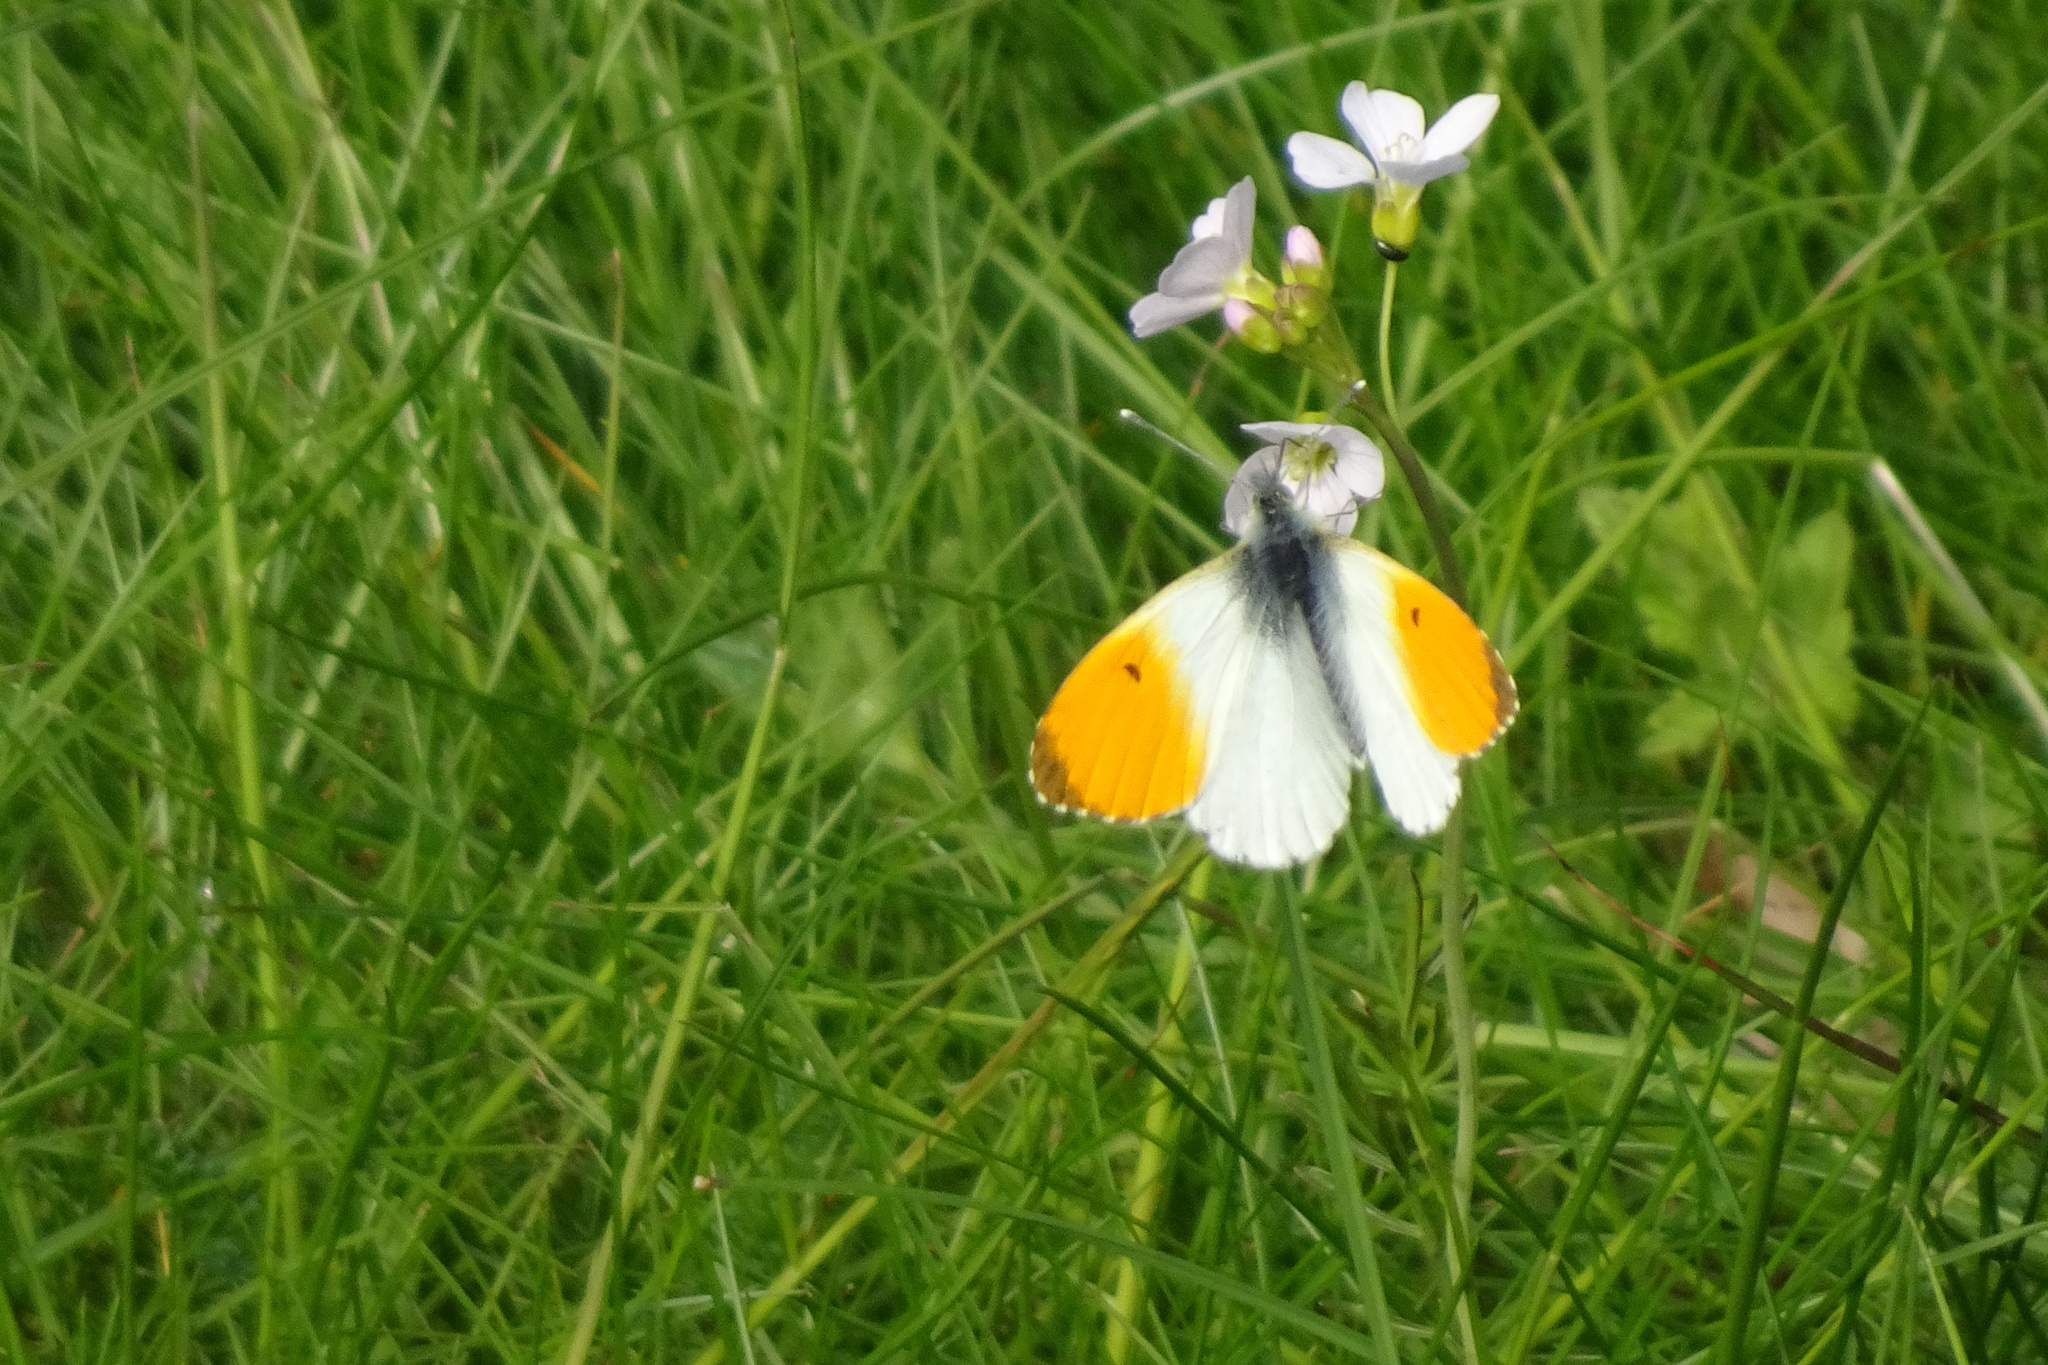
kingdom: Animalia
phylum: Arthropoda
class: Insecta
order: Lepidoptera
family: Pieridae
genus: Anthocharis
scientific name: Anthocharis cardamines
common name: Orange-tip
